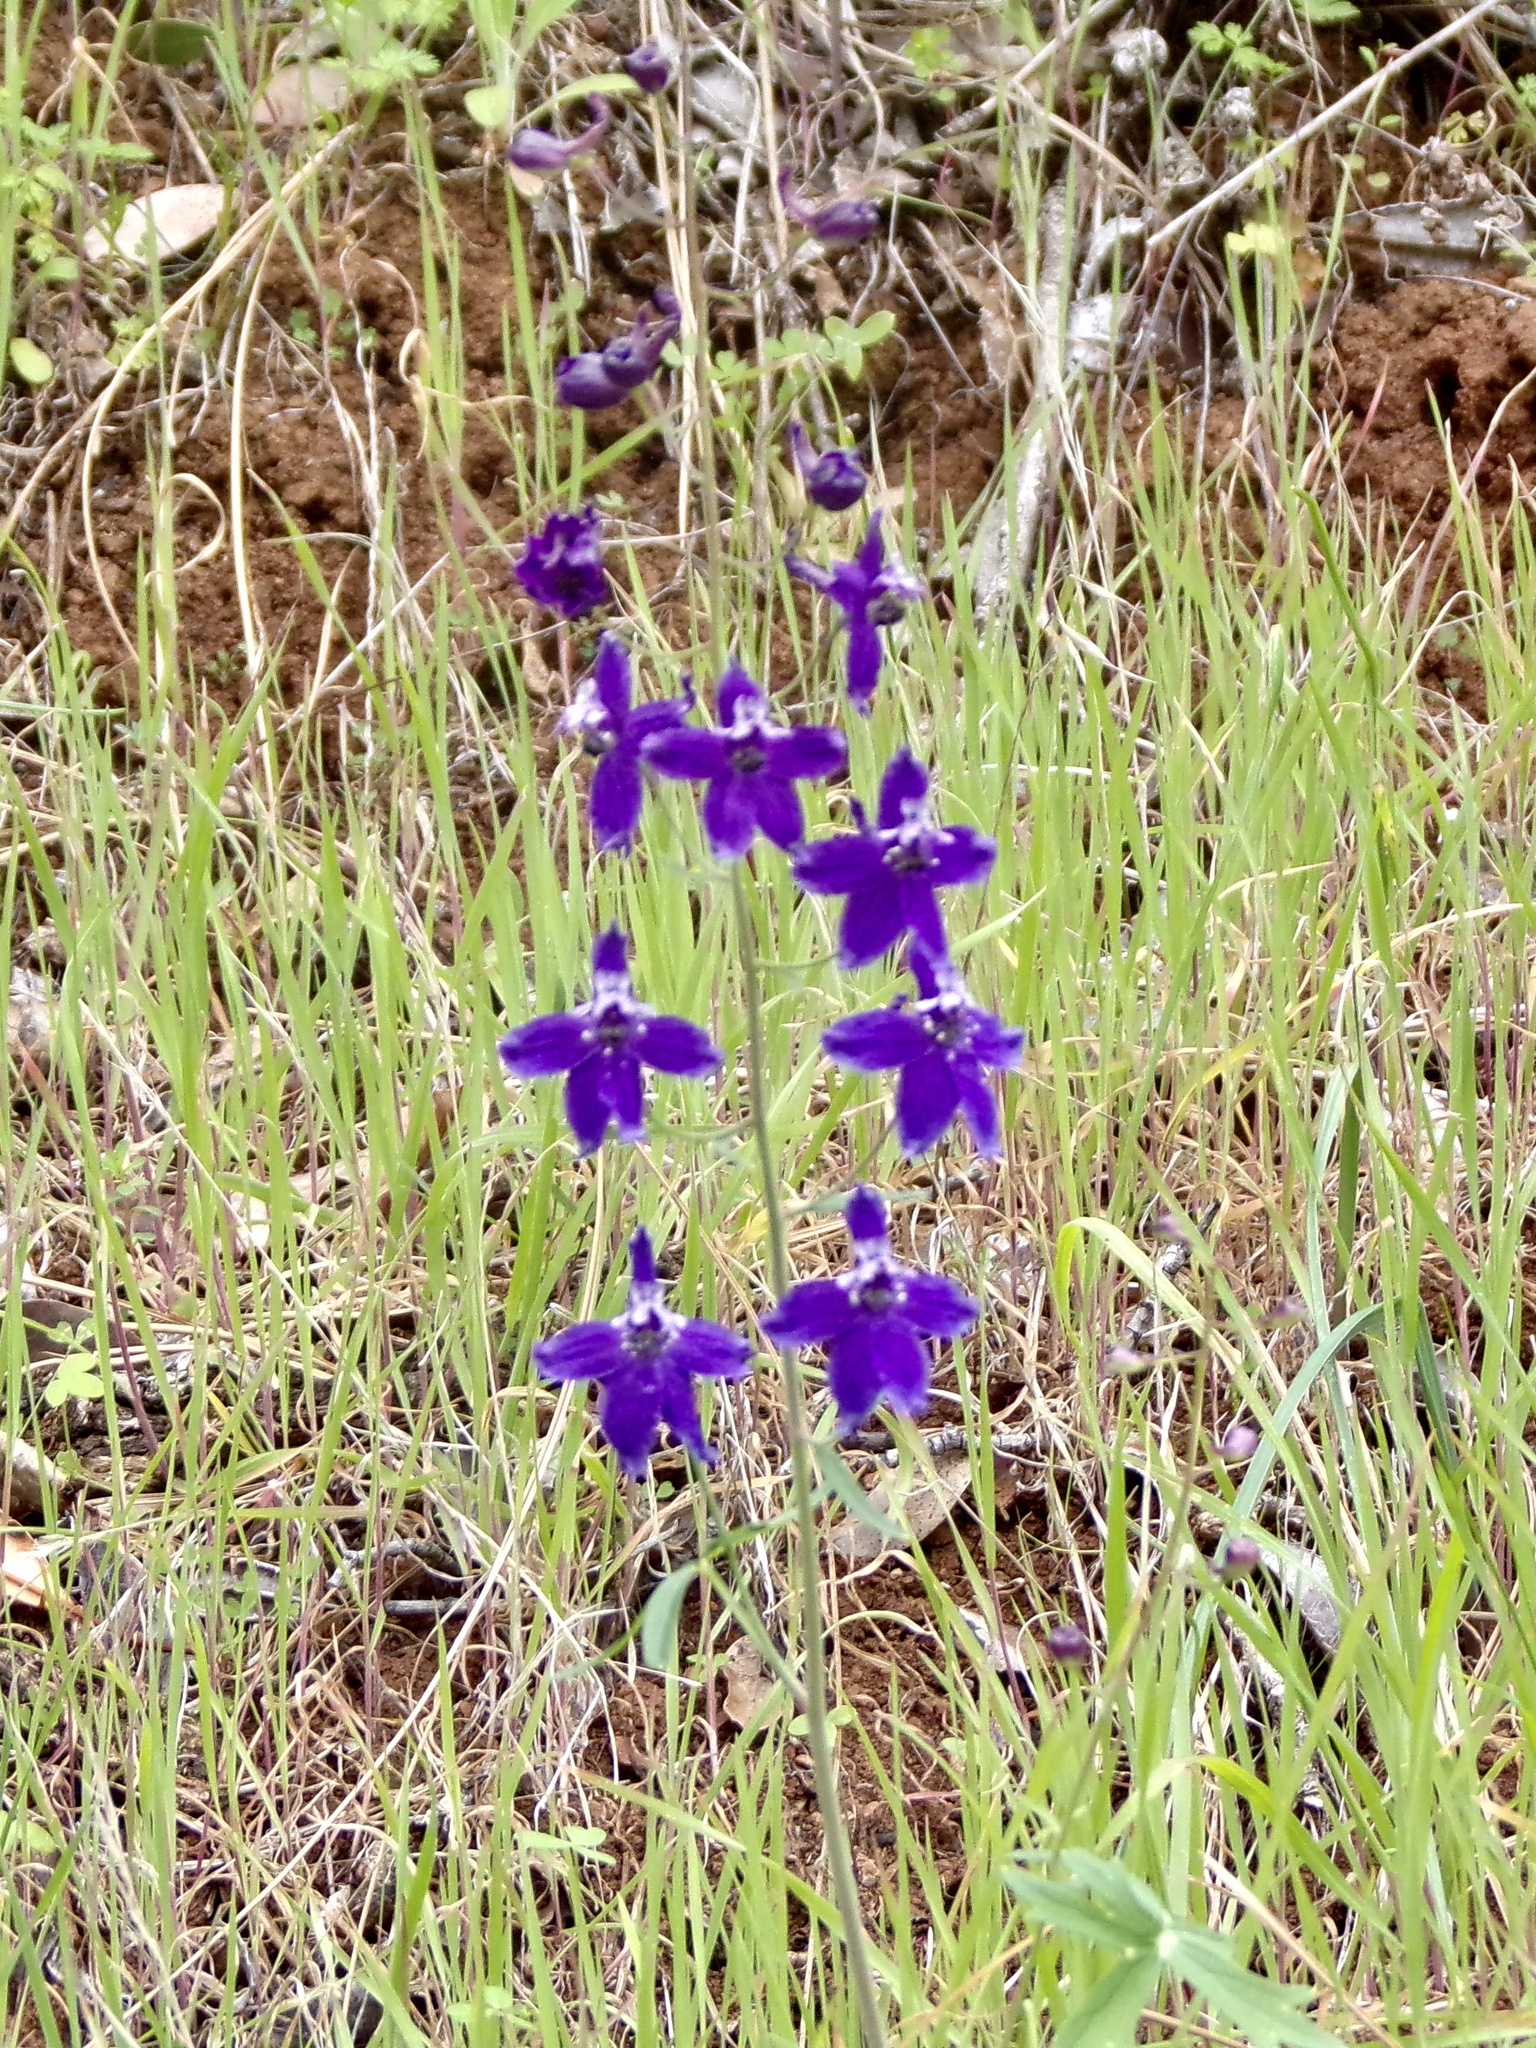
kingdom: Plantae
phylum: Tracheophyta
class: Magnoliopsida
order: Ranunculales
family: Ranunculaceae
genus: Delphinium
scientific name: Delphinium patens
